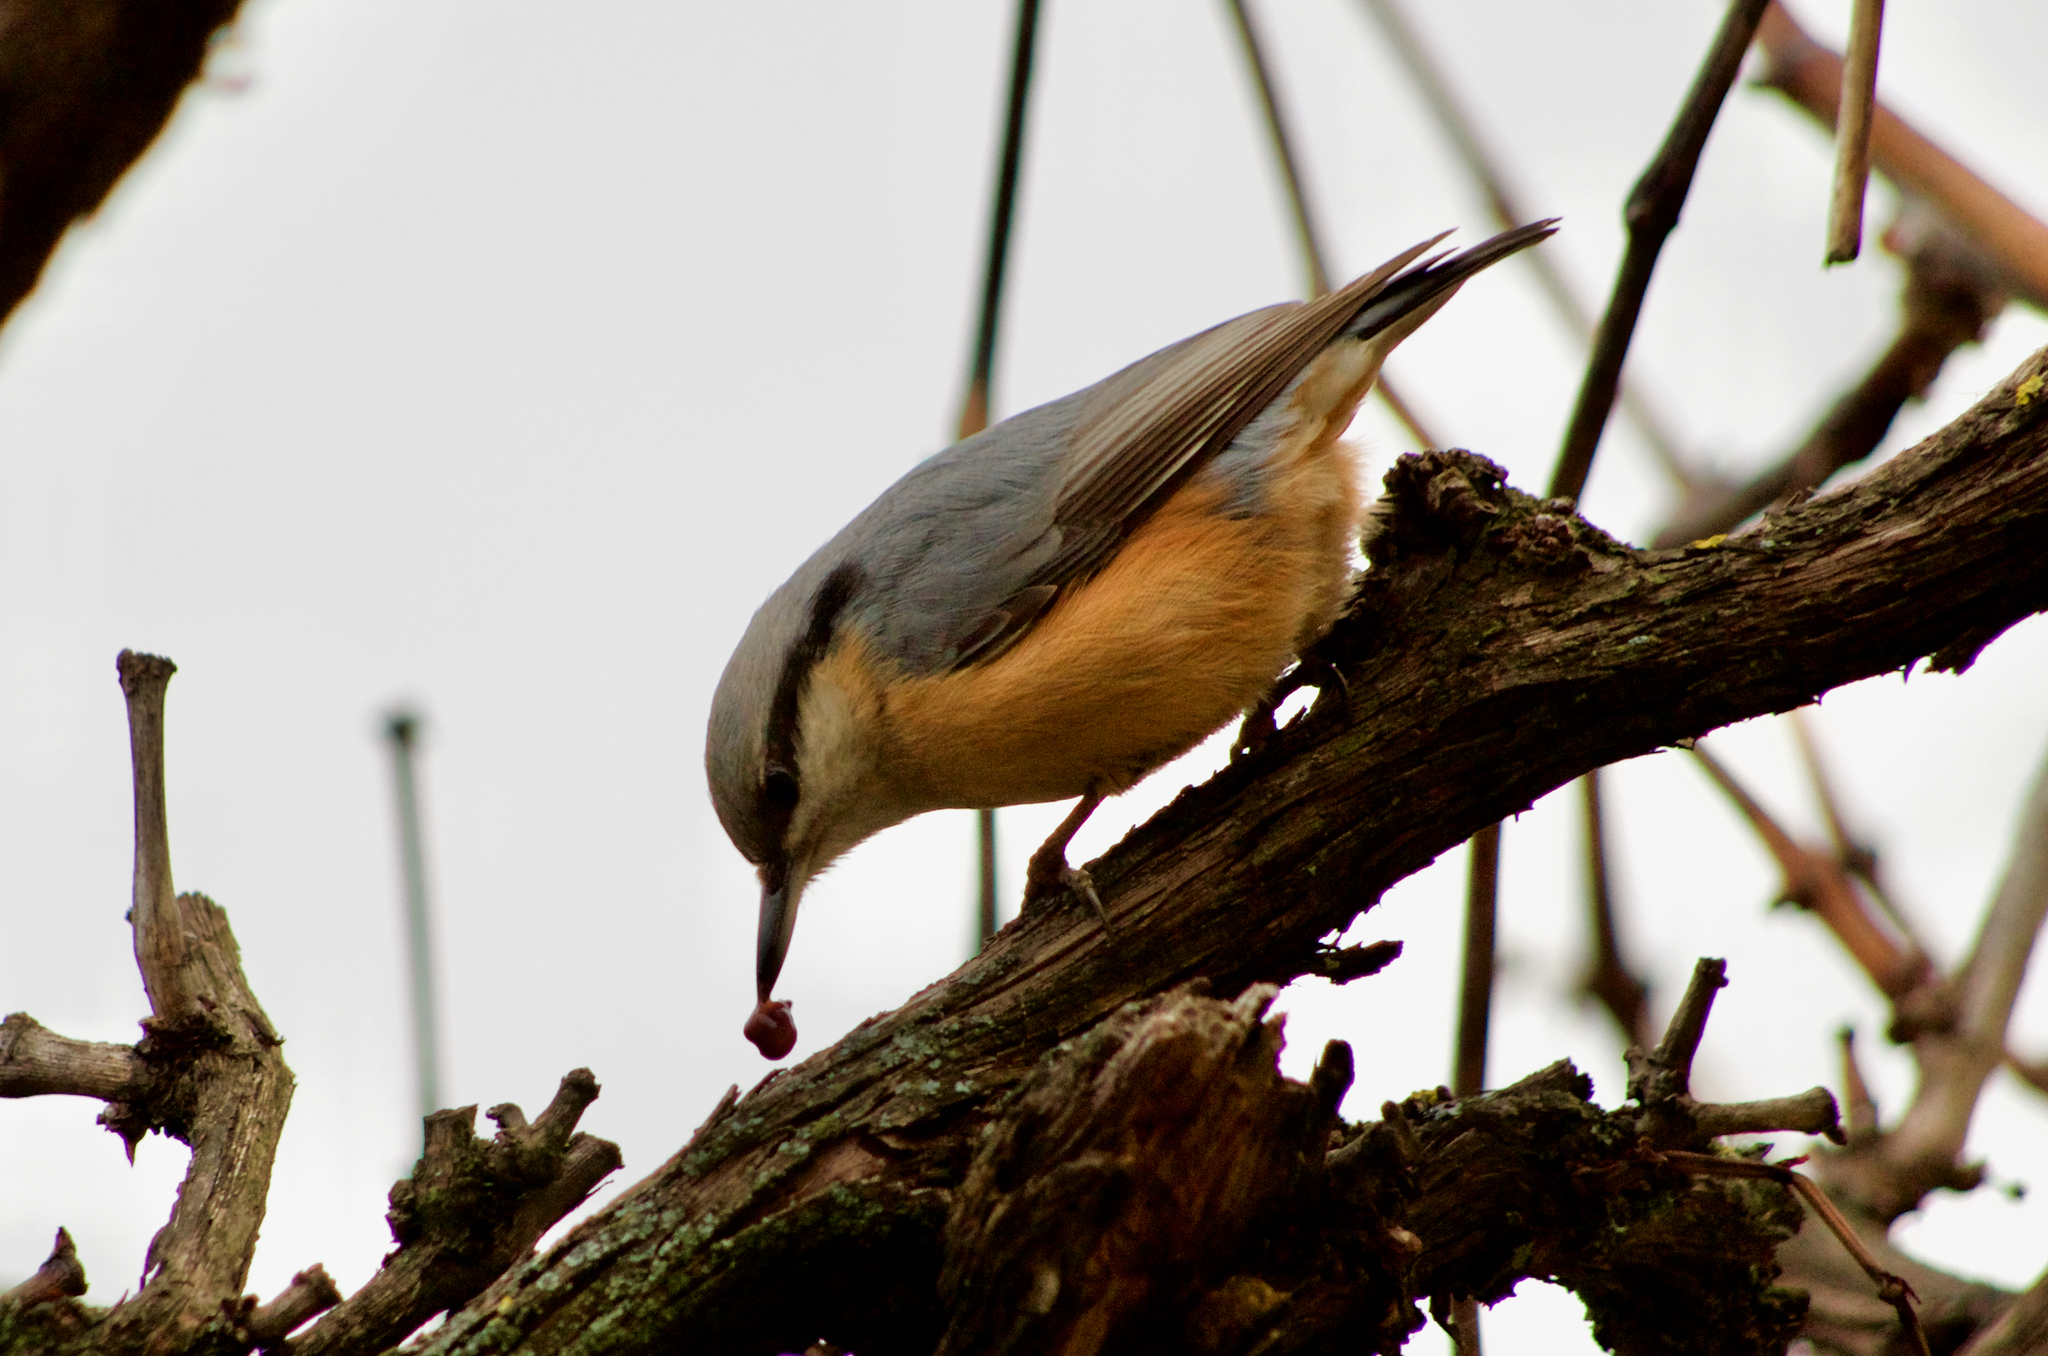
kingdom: Animalia
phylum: Chordata
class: Aves
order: Passeriformes
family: Sittidae
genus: Sitta
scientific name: Sitta europaea
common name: Eurasian nuthatch
